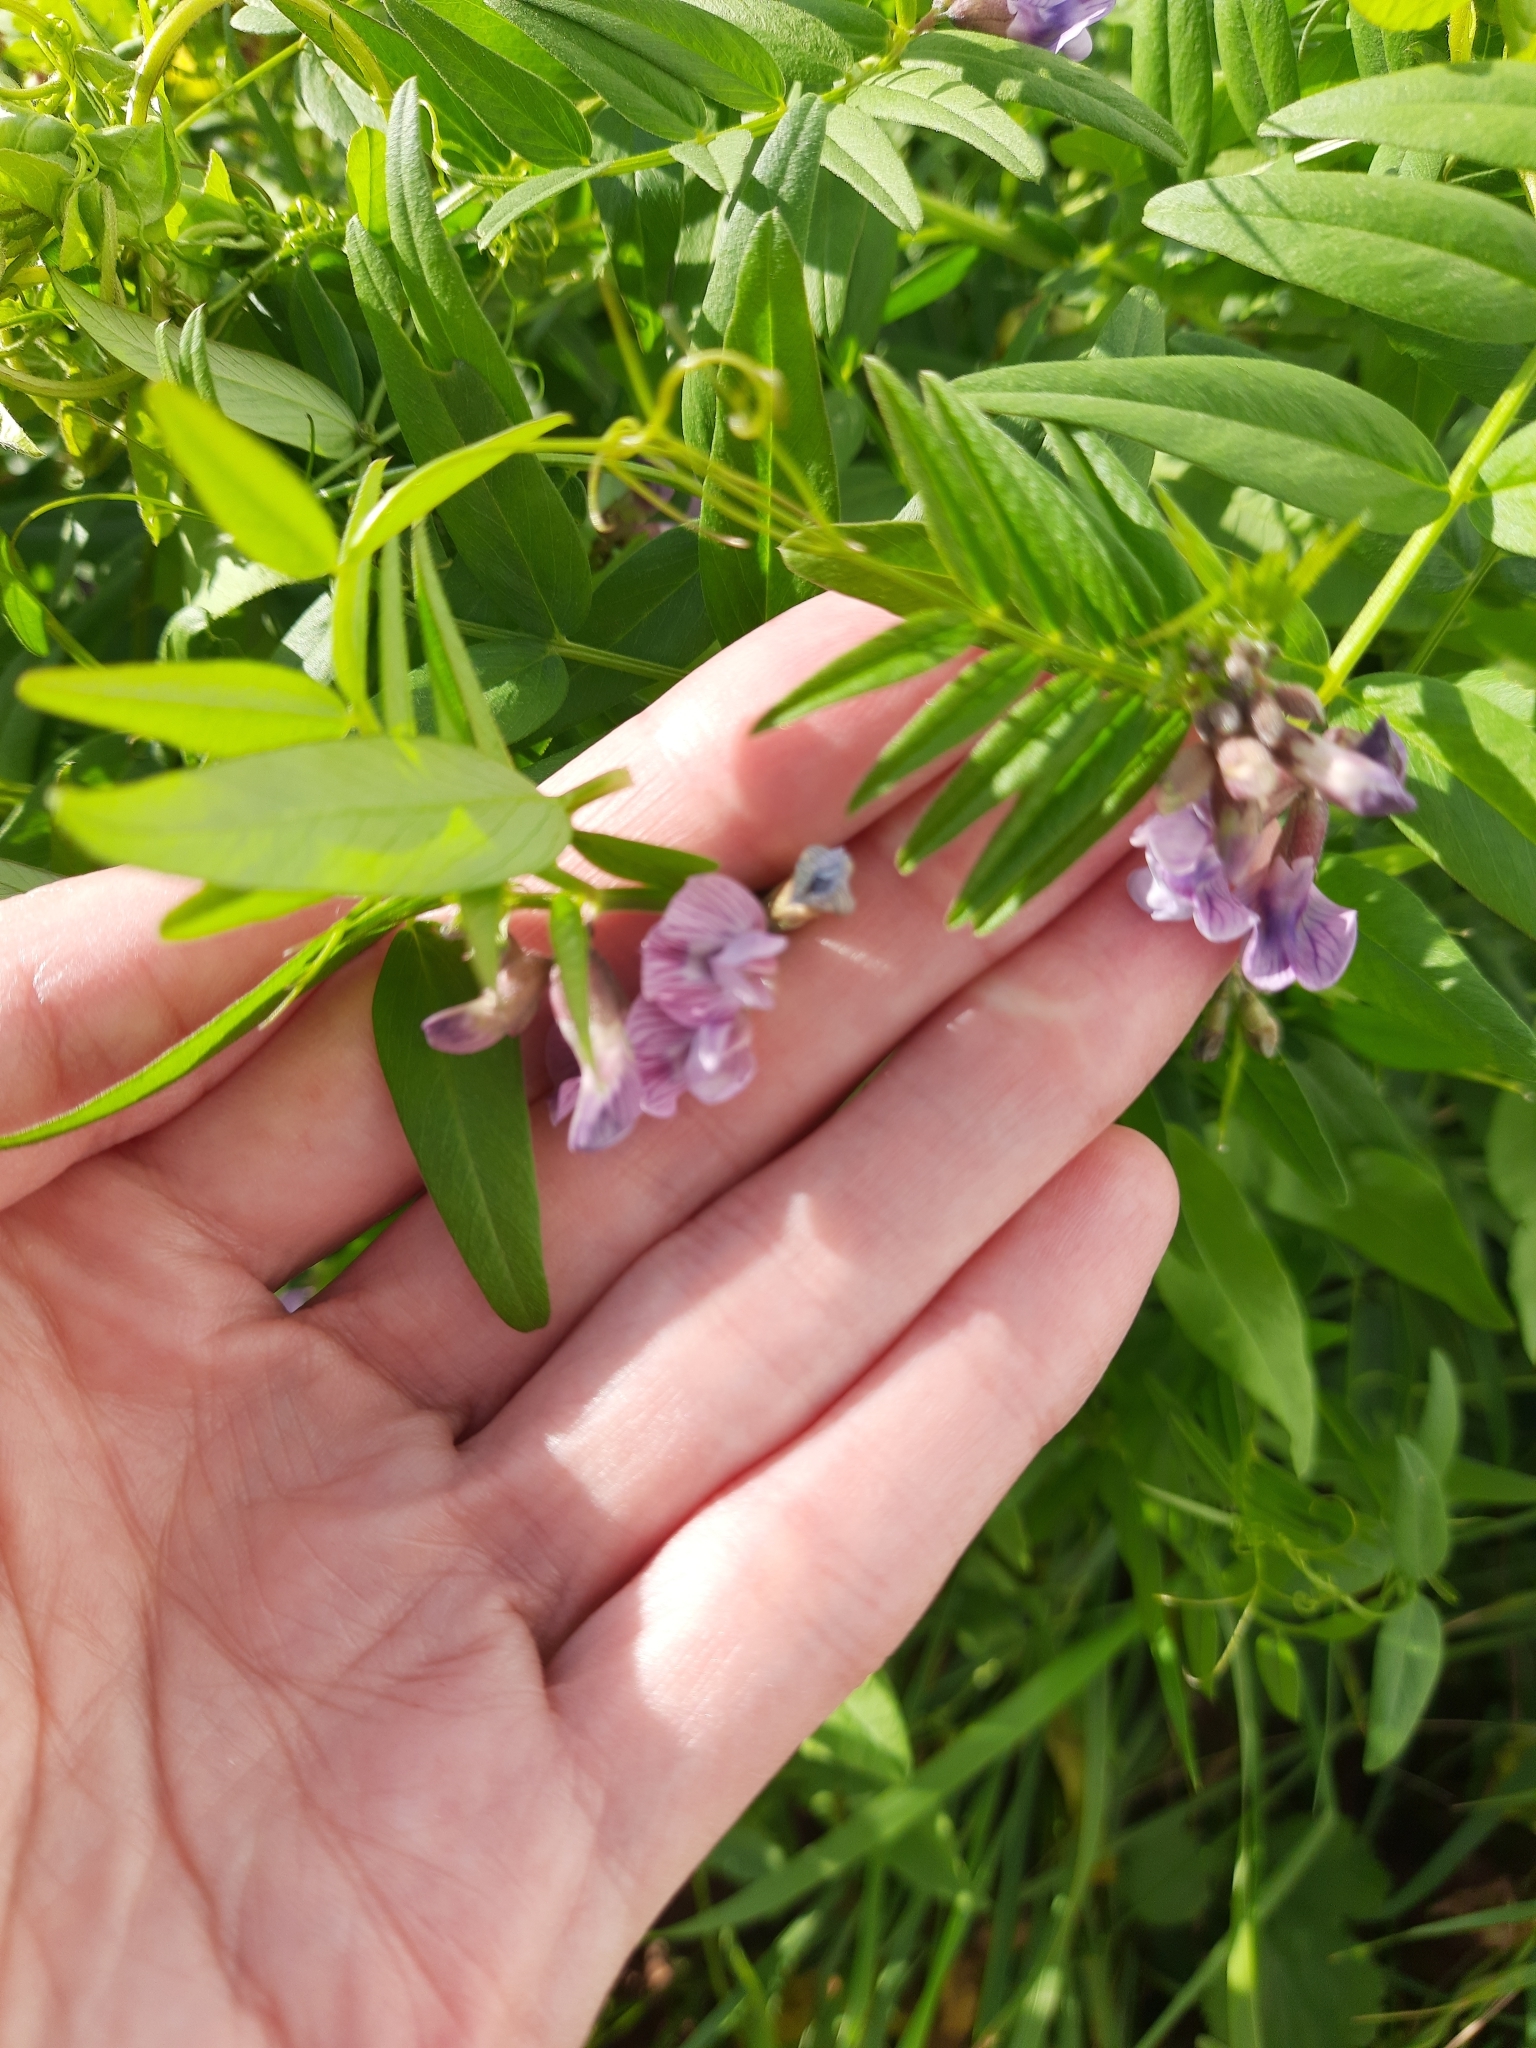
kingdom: Plantae
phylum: Tracheophyta
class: Magnoliopsida
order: Fabales
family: Fabaceae
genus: Vicia
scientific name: Vicia sepium
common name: Bush vetch
